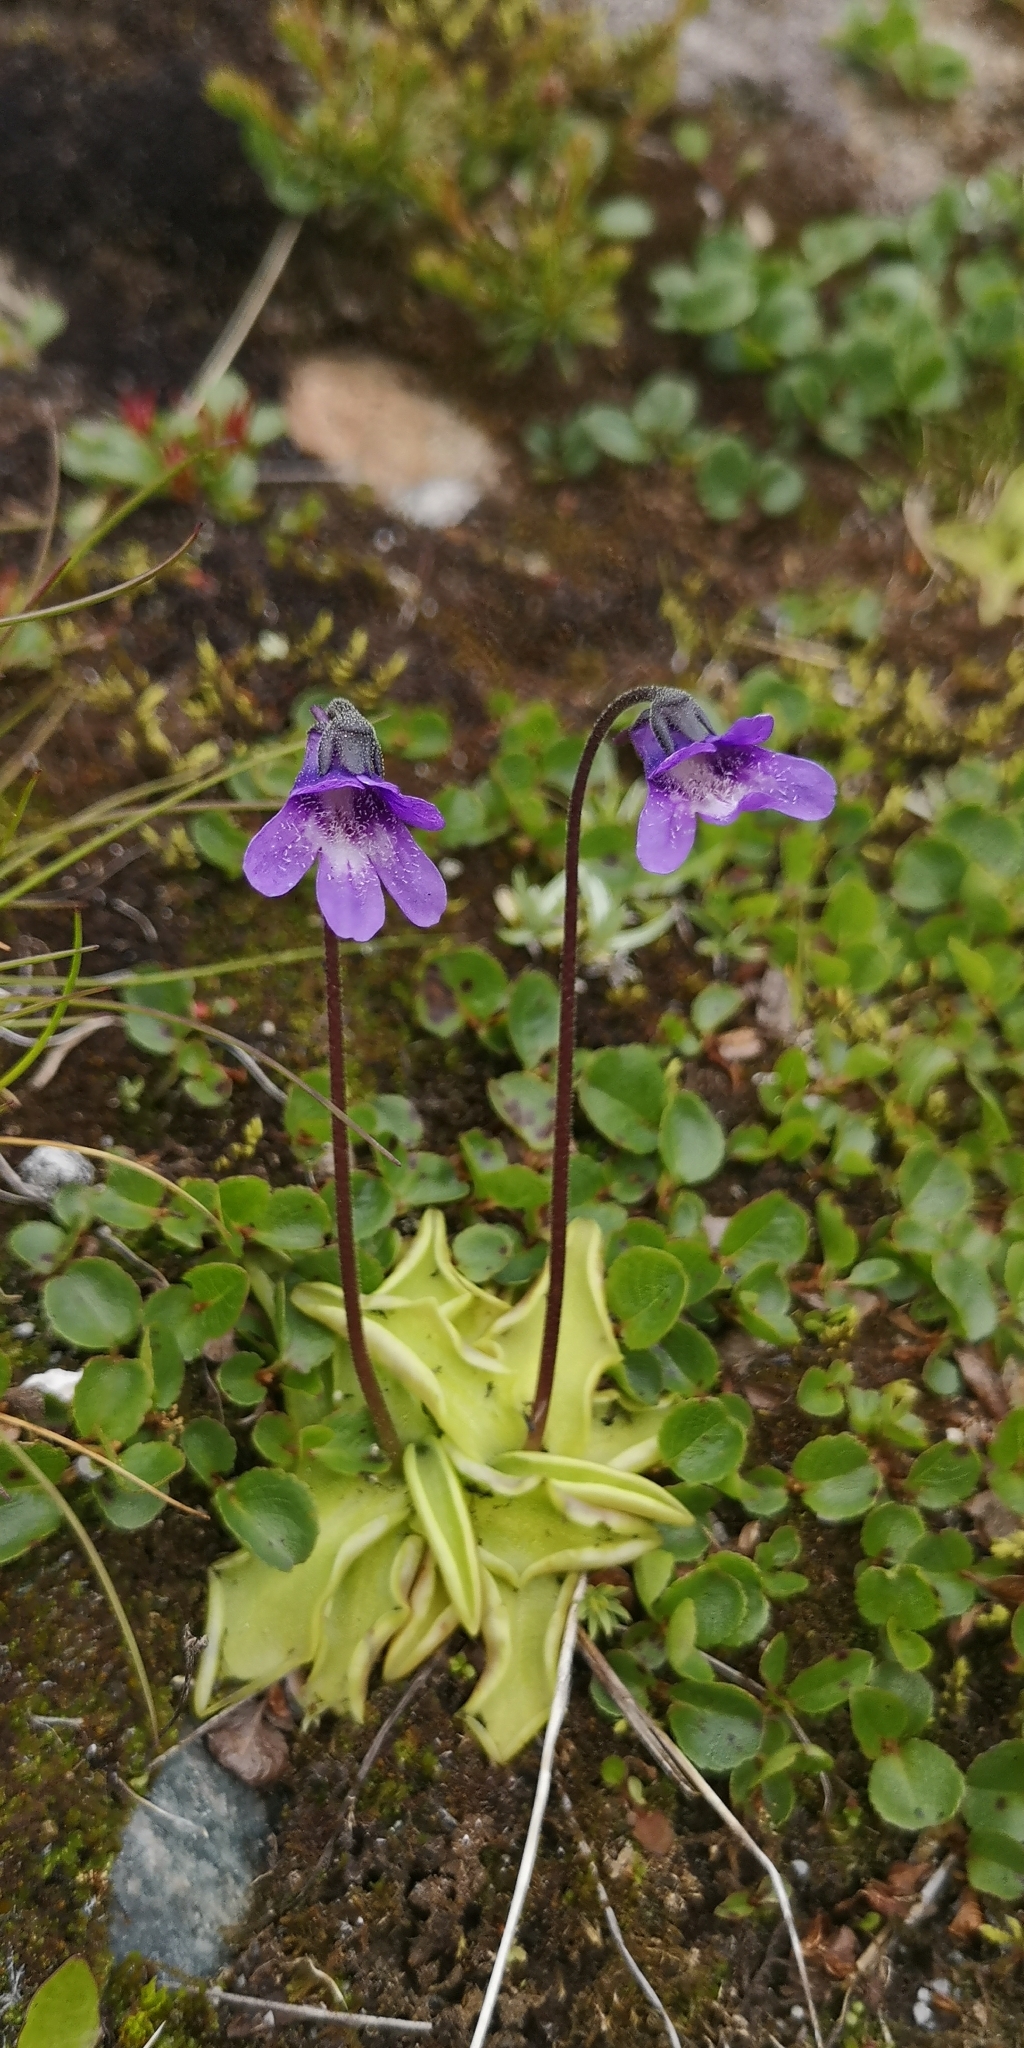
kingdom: Plantae
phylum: Tracheophyta
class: Magnoliopsida
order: Lamiales
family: Lentibulariaceae
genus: Pinguicula
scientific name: Pinguicula vulgaris
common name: Common butterwort
